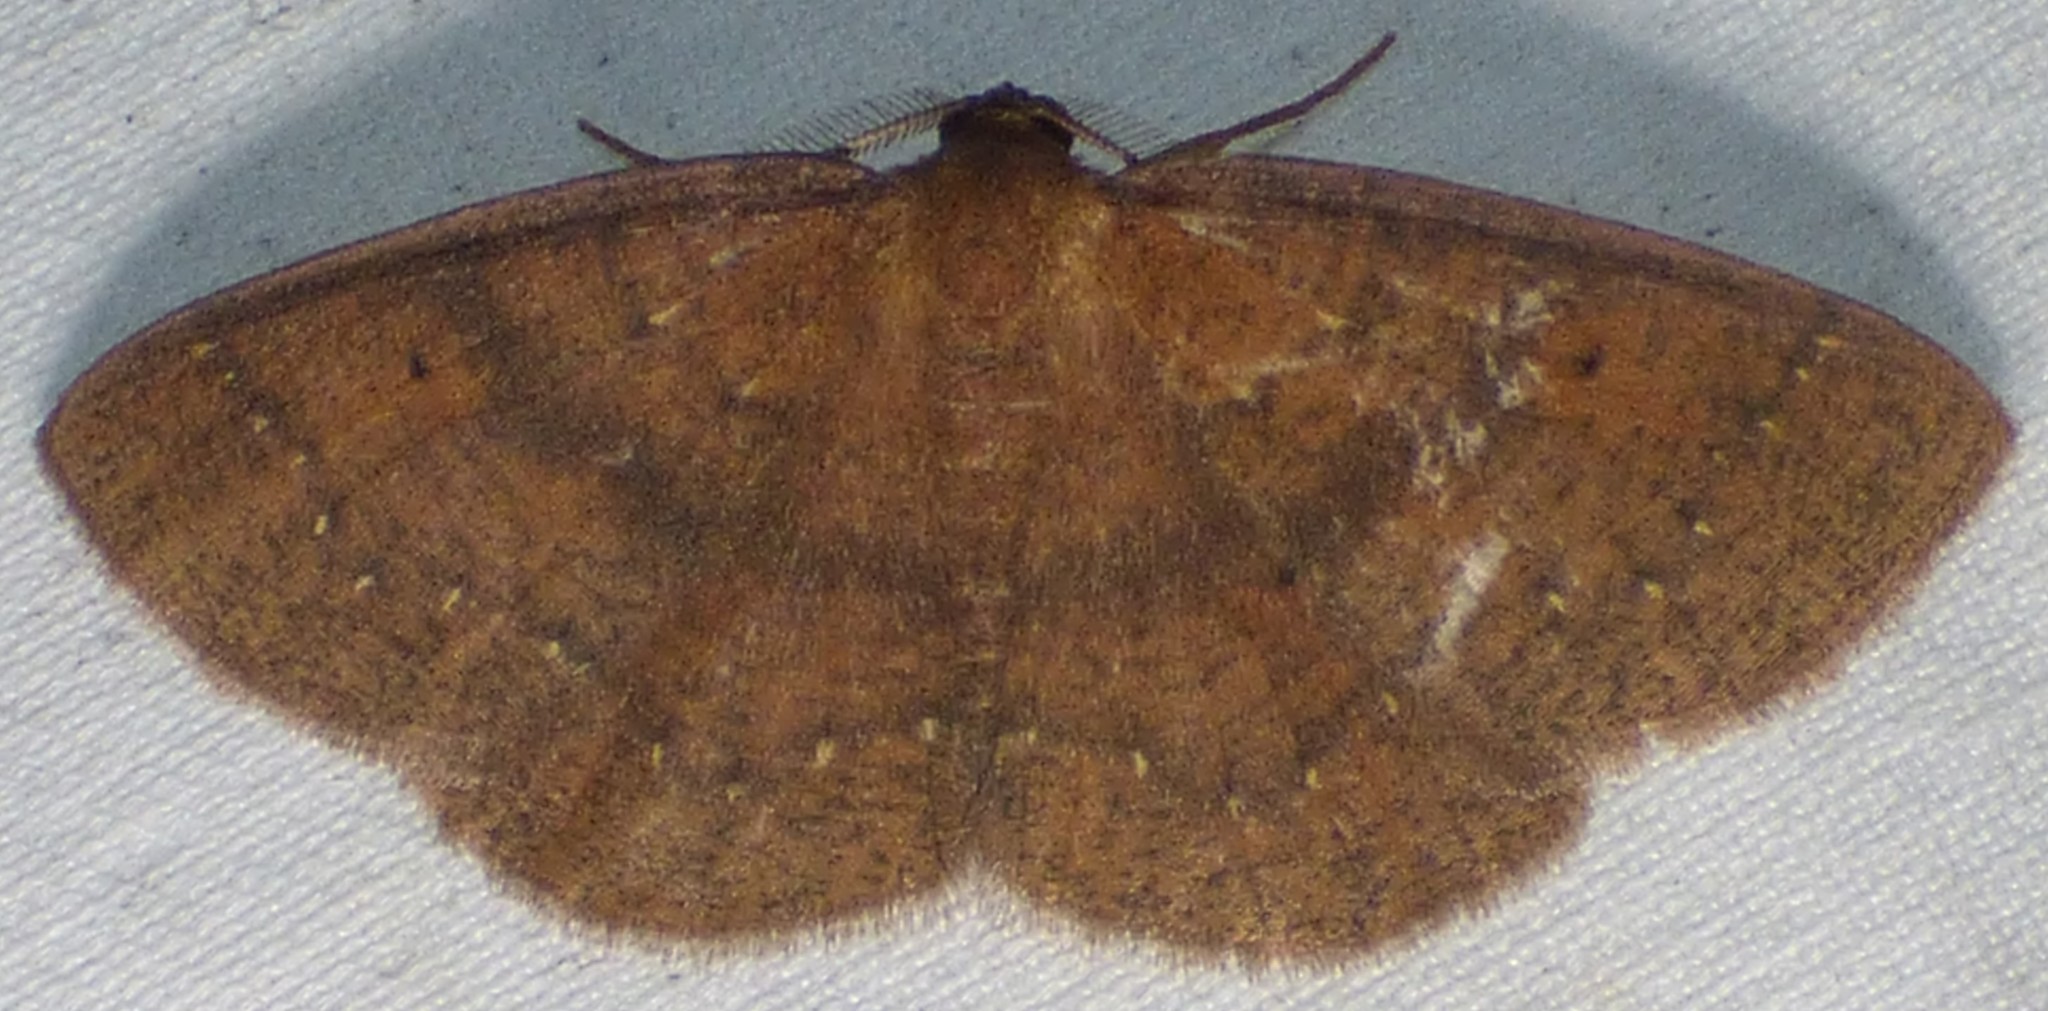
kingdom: Animalia
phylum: Arthropoda
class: Insecta
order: Lepidoptera
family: Geometridae
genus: Ilexia
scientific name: Ilexia intractata
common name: Black-dotted ruddy moth
